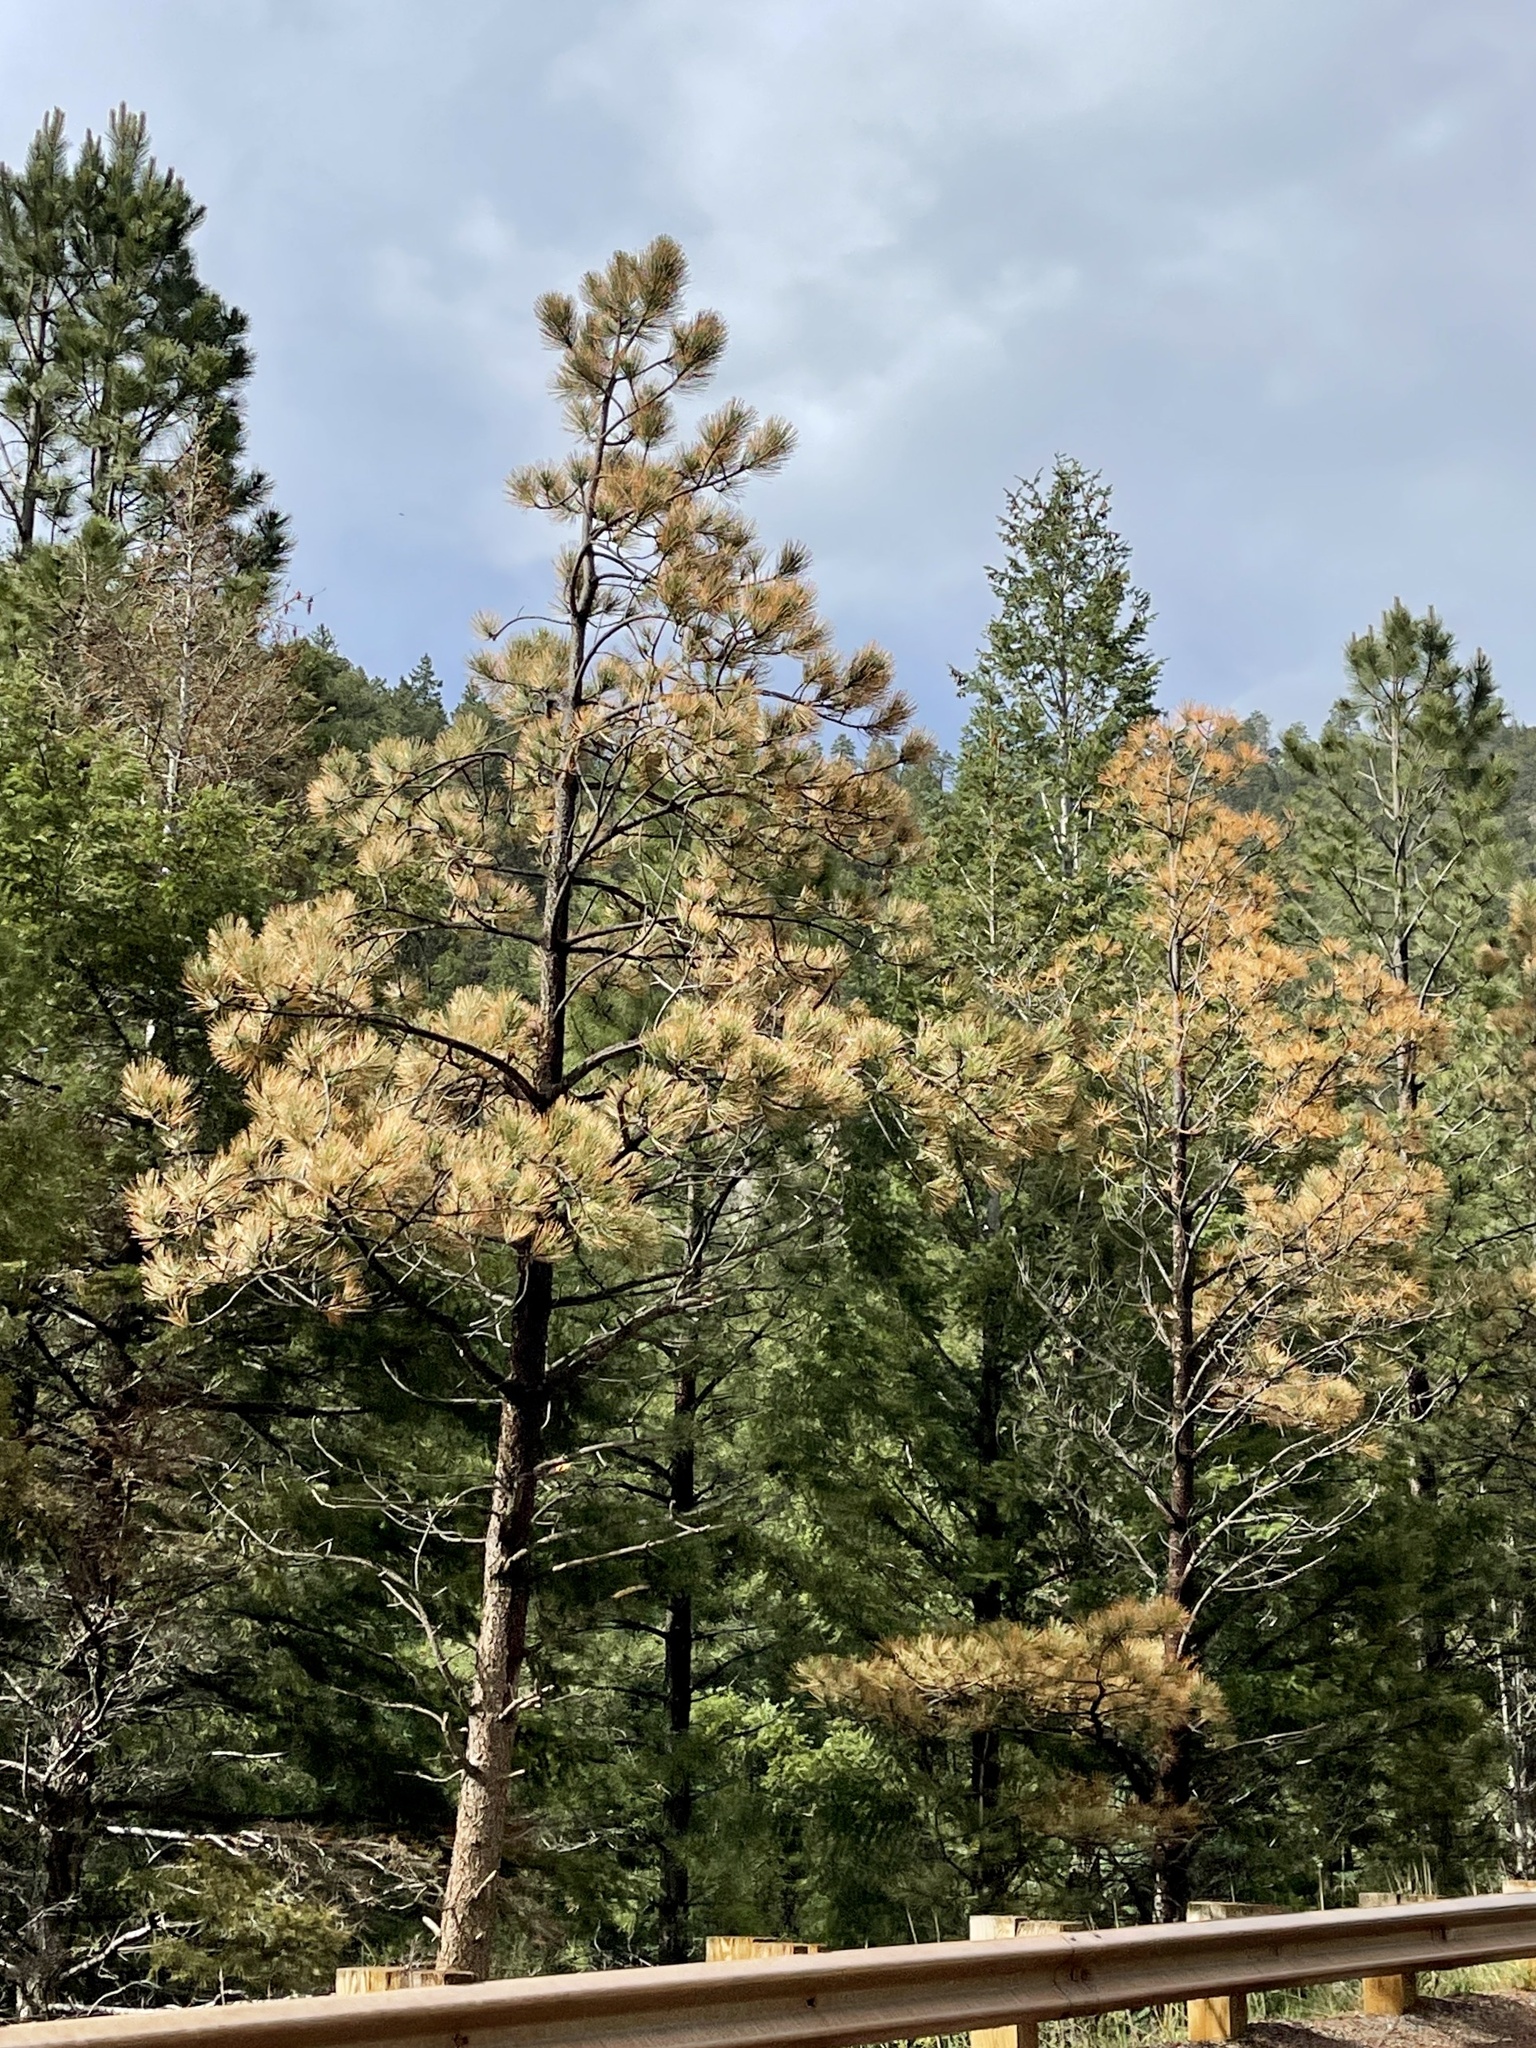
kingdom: Plantae
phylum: Tracheophyta
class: Pinopsida
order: Pinales
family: Pinaceae
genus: Pinus
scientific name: Pinus ponderosa
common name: Western yellow-pine
